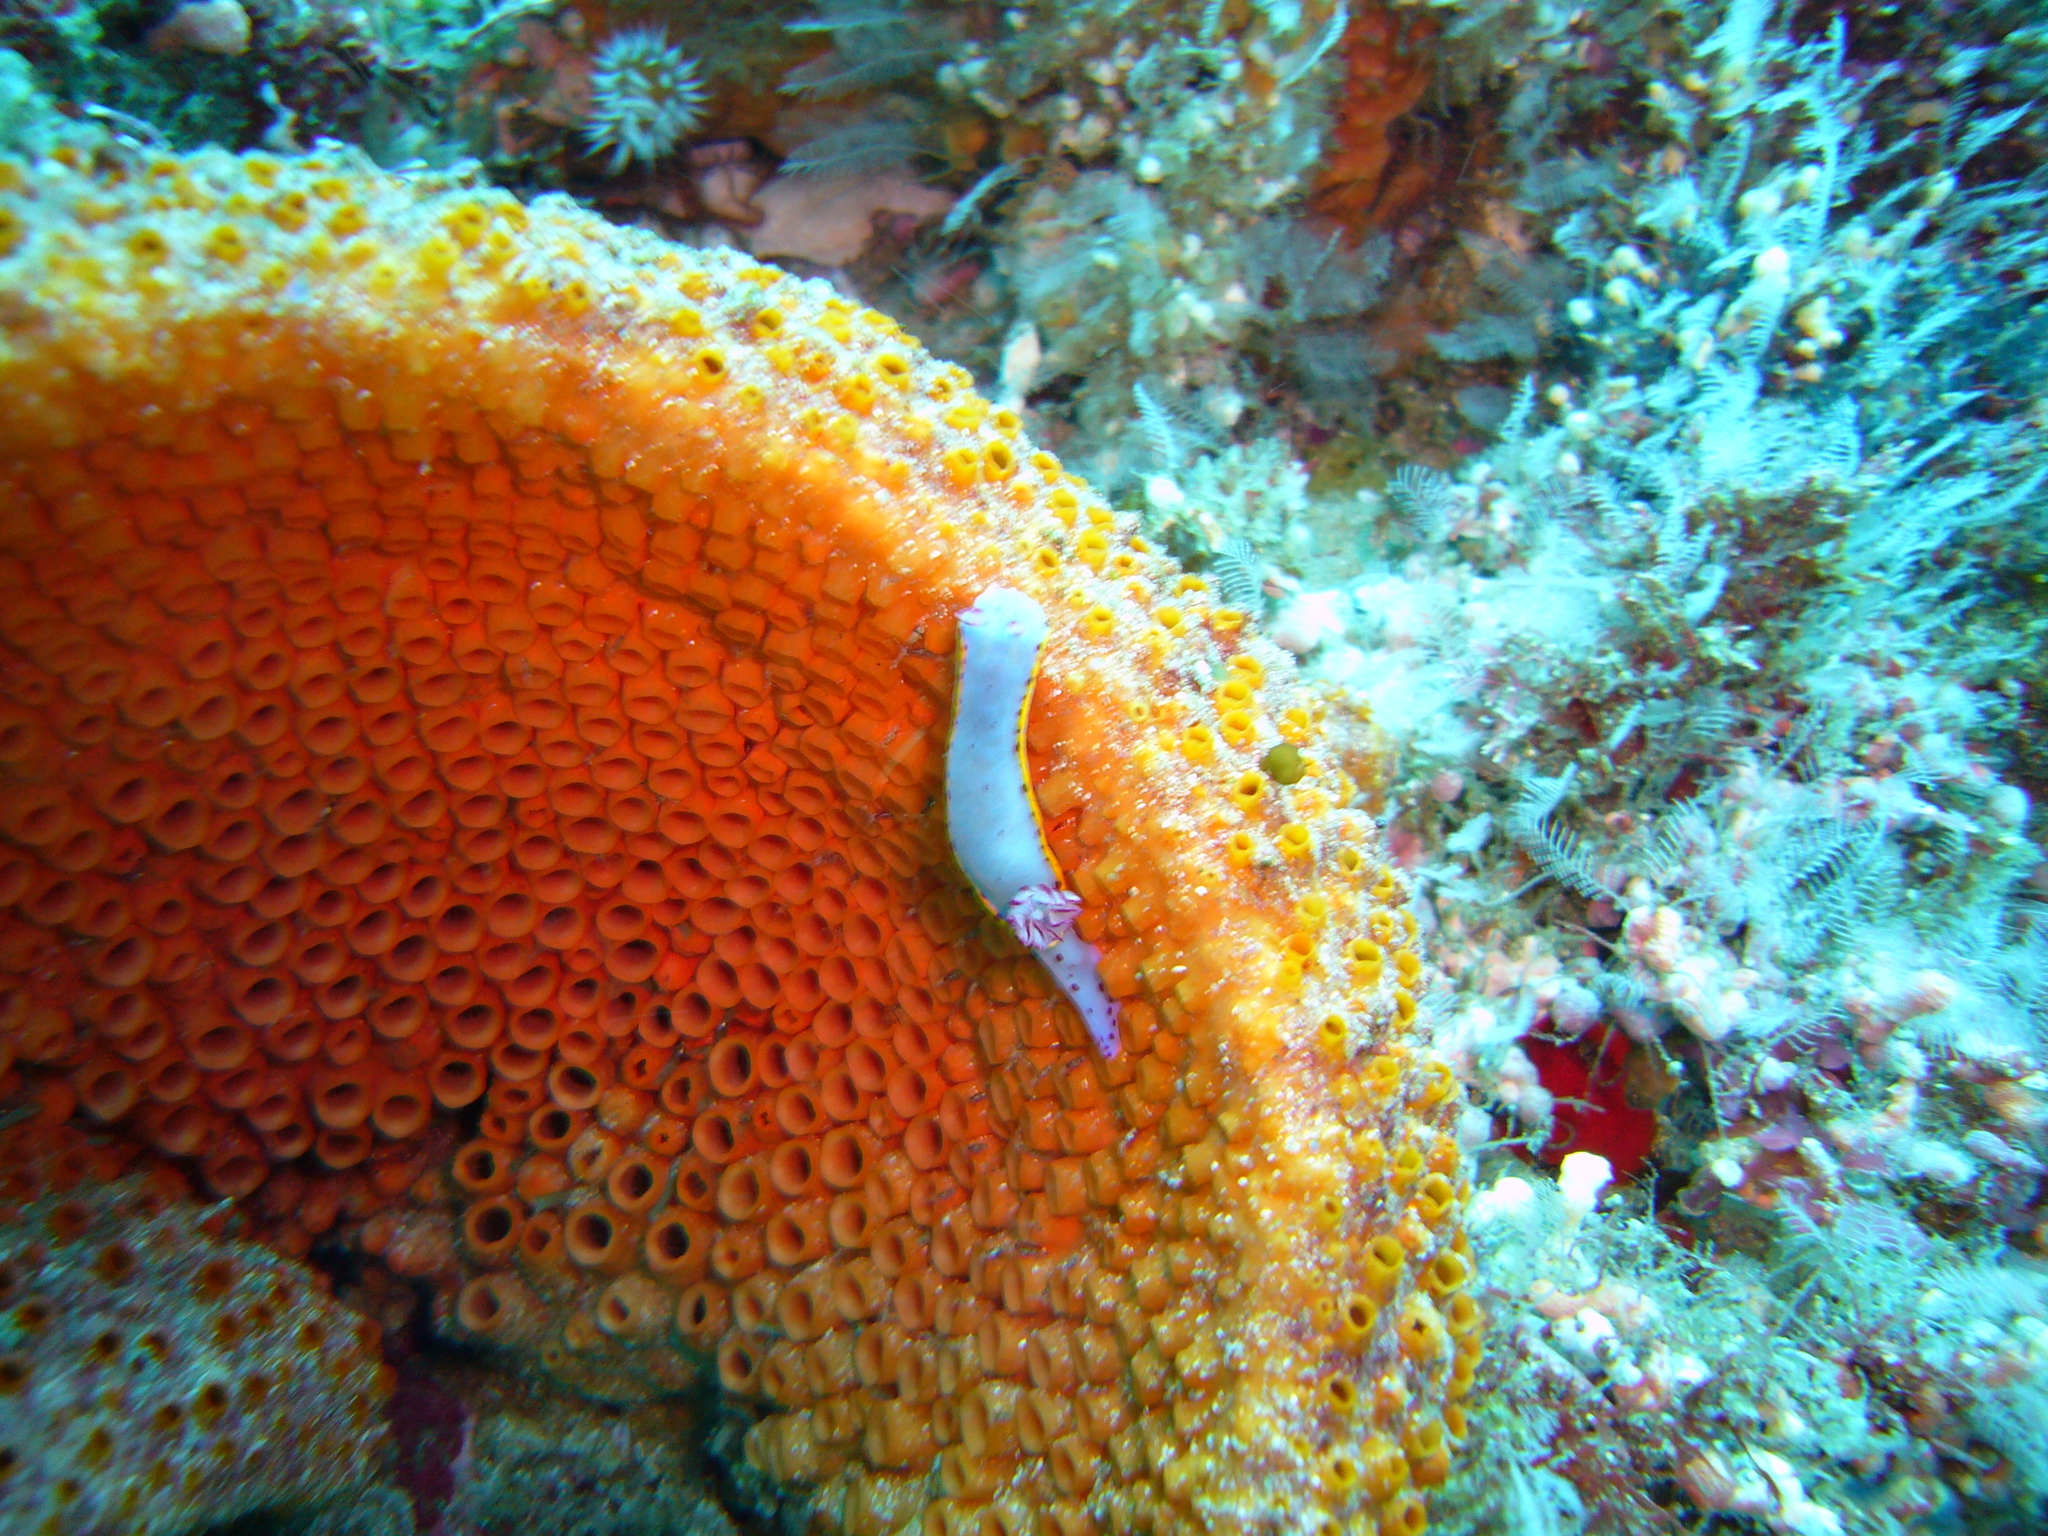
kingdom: Animalia
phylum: Mollusca
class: Gastropoda
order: Nudibranchia
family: Chromodorididae
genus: Hypselodoris
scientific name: Hypselodoris bennetti
